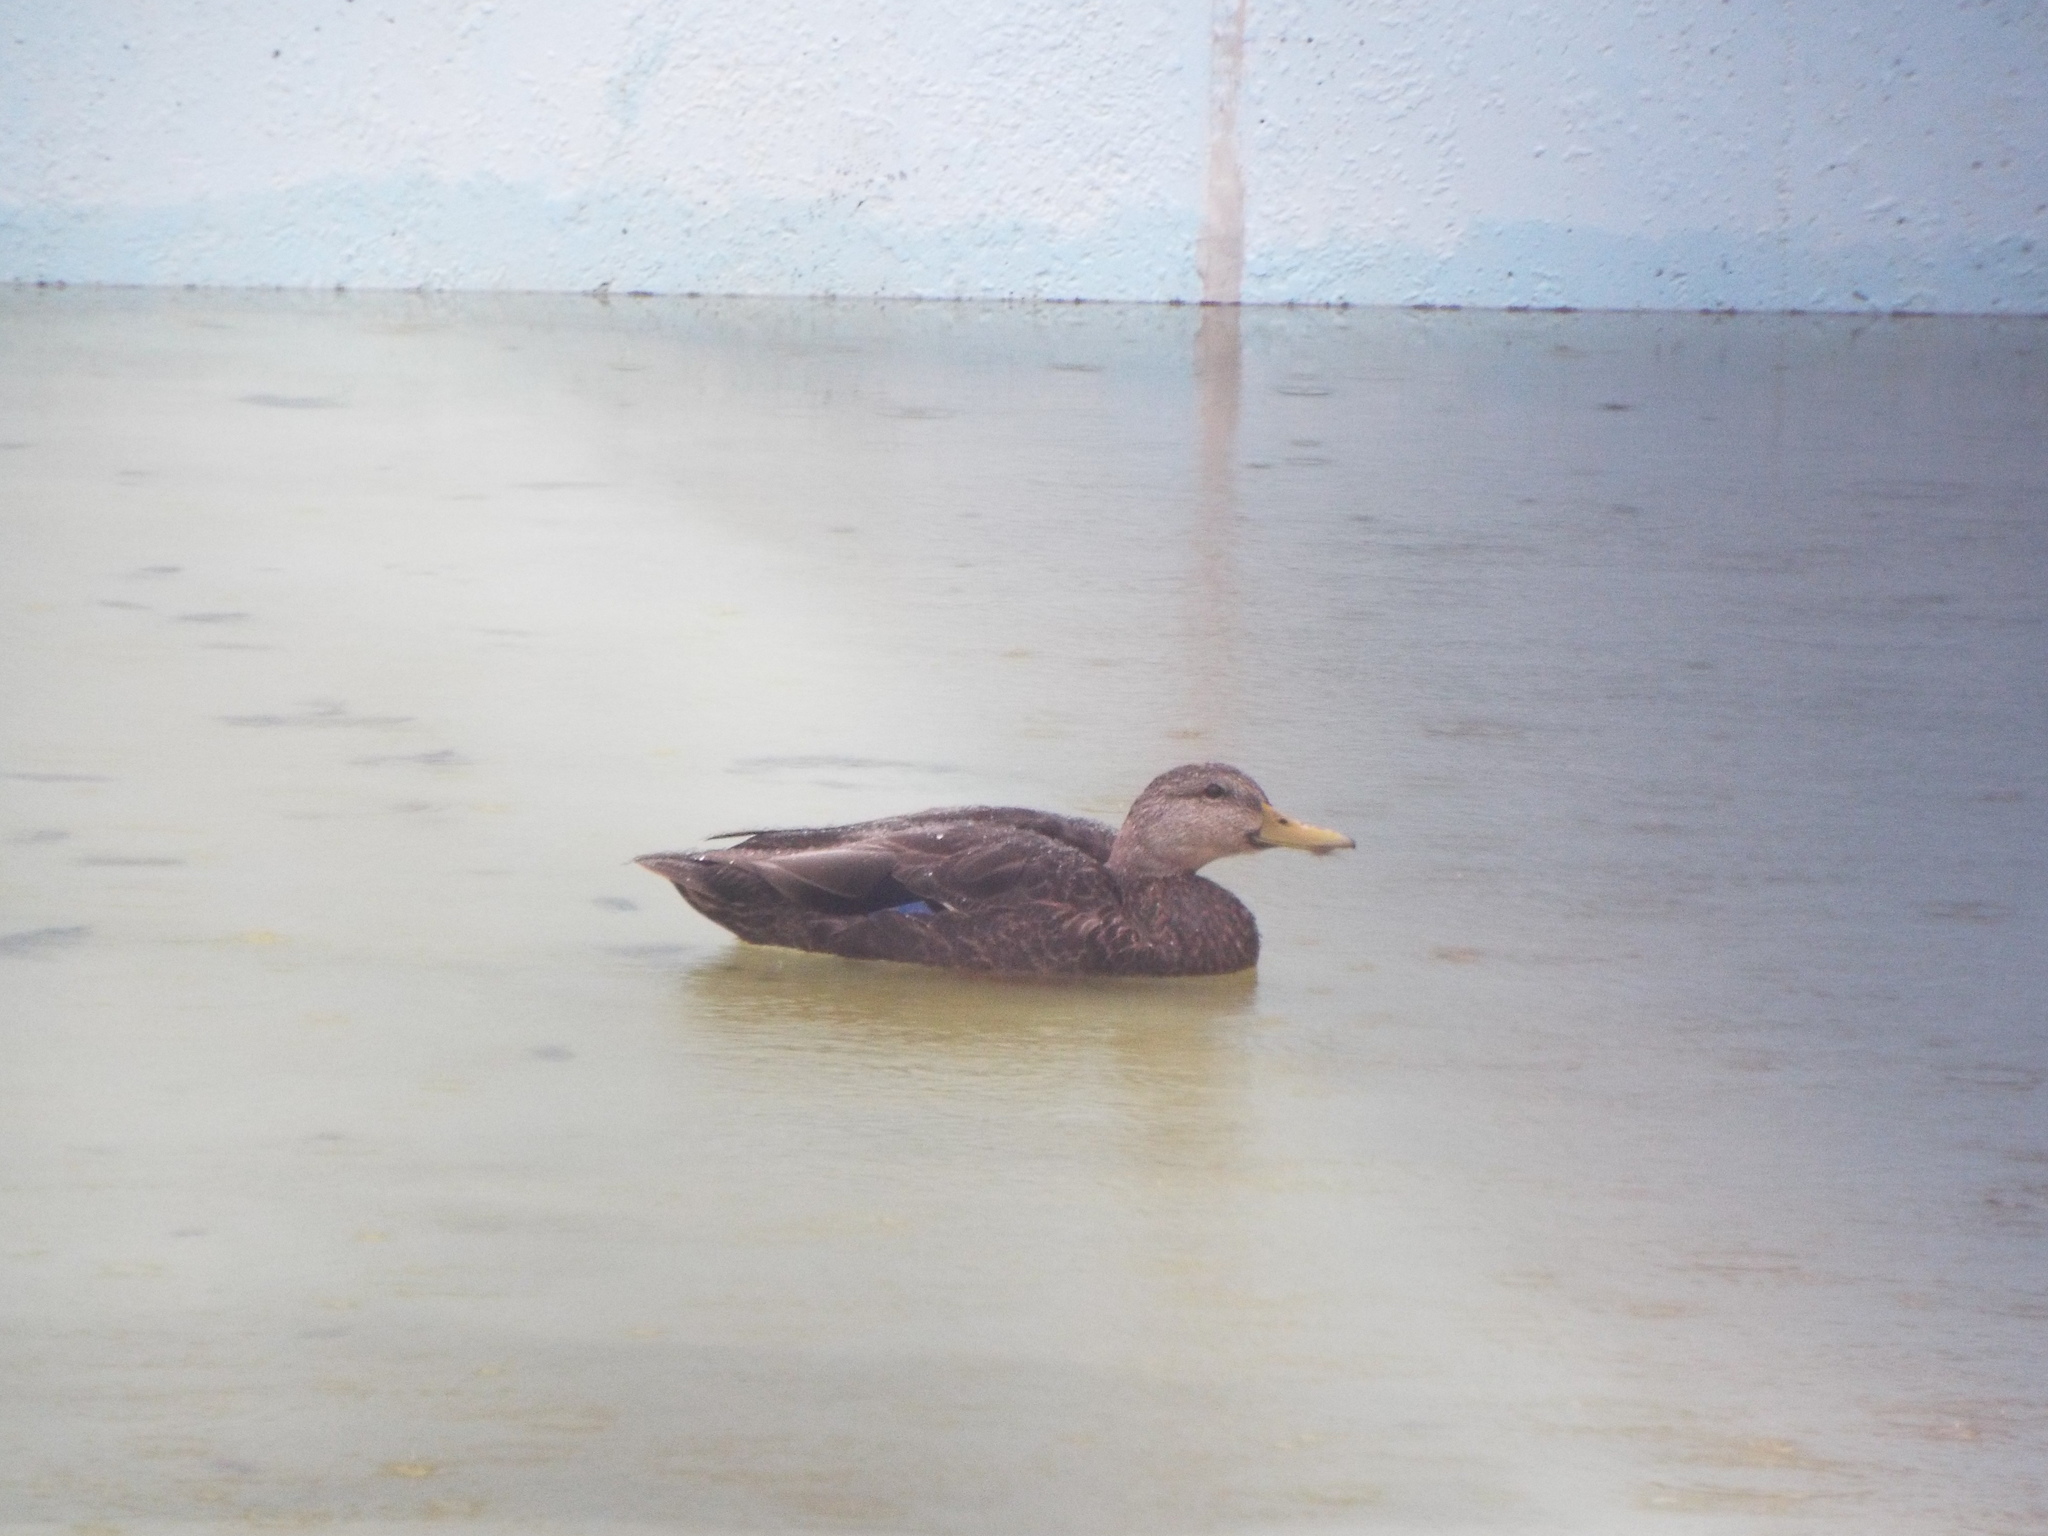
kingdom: Animalia
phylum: Chordata
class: Aves
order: Anseriformes
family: Anatidae
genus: Anas
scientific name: Anas rubripes
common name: American black duck
